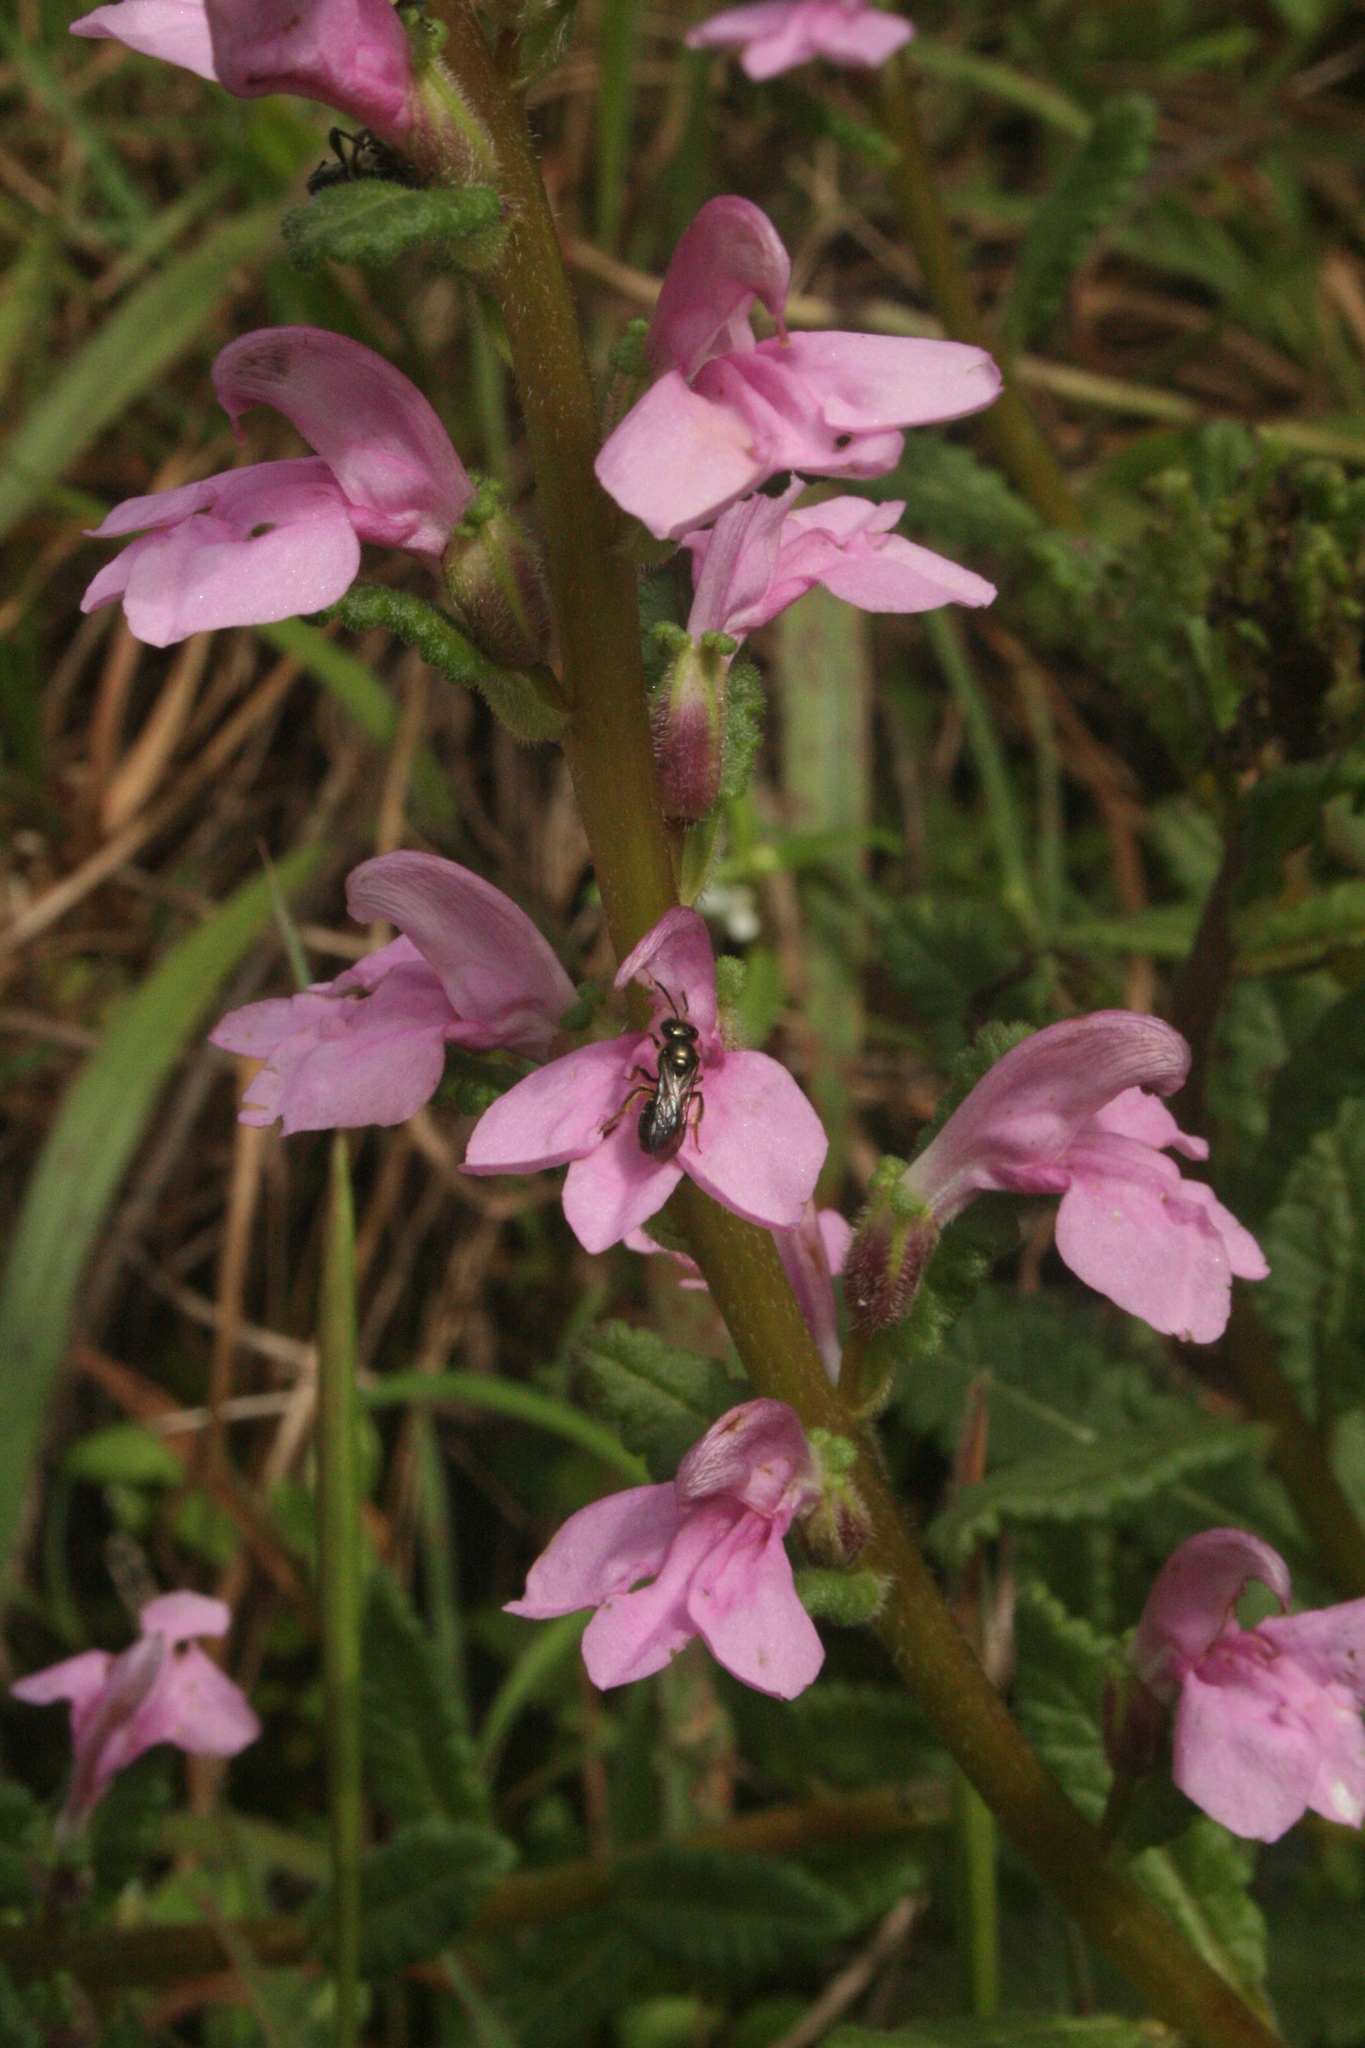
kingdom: Plantae
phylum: Tracheophyta
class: Magnoliopsida
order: Lamiales
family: Orobanchaceae
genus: Pedicularis
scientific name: Pedicularis zeylanica
